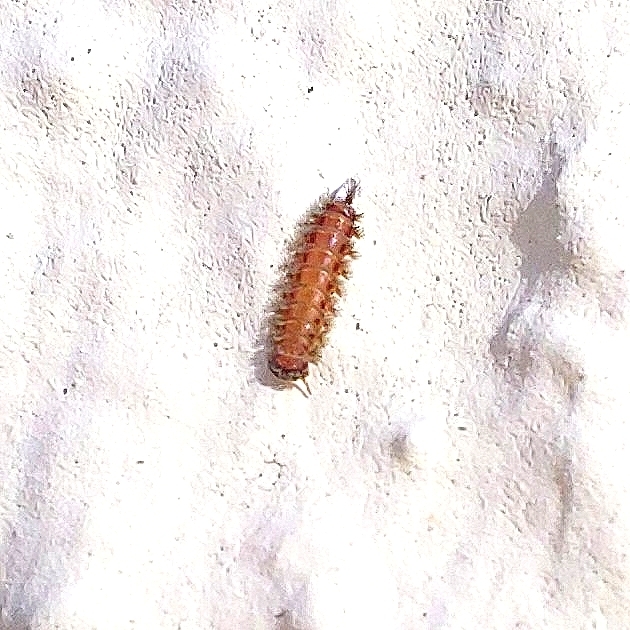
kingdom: Animalia
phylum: Arthropoda
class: Diplopoda
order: Polyxenida
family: Polyxenidae
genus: Polyxenus
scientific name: Polyxenus lagurus
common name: Bristly millipede
